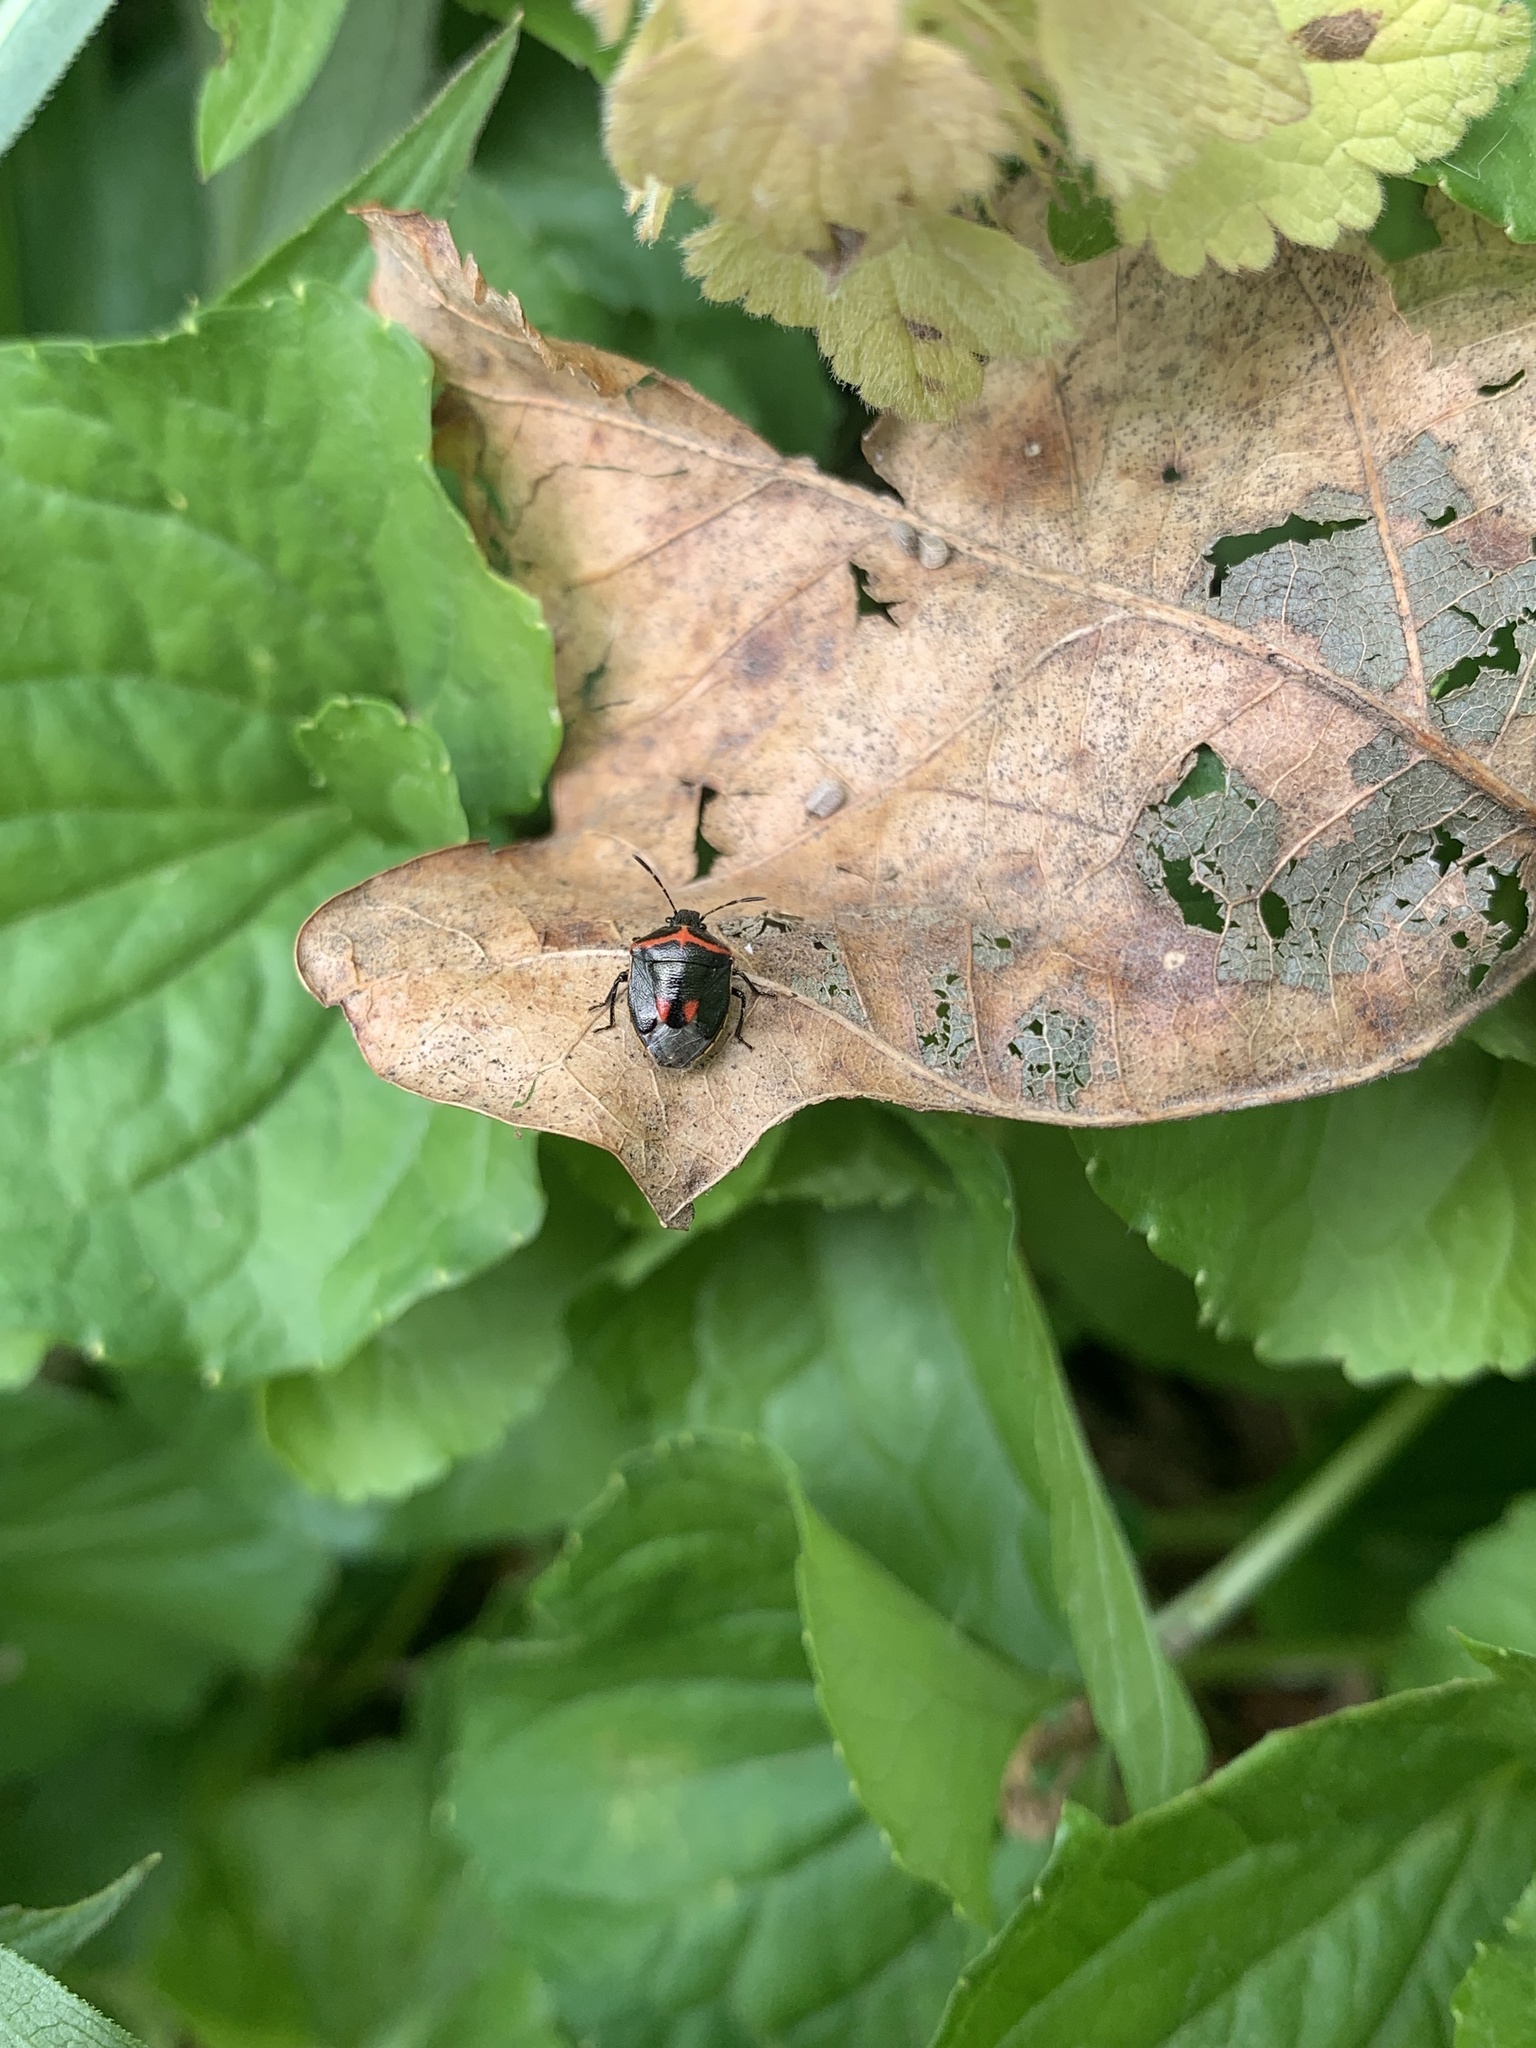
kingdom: Animalia
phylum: Arthropoda
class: Insecta
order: Hemiptera
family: Pentatomidae
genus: Cosmopepla
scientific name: Cosmopepla lintneriana
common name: Twice-stabbed stink bug
